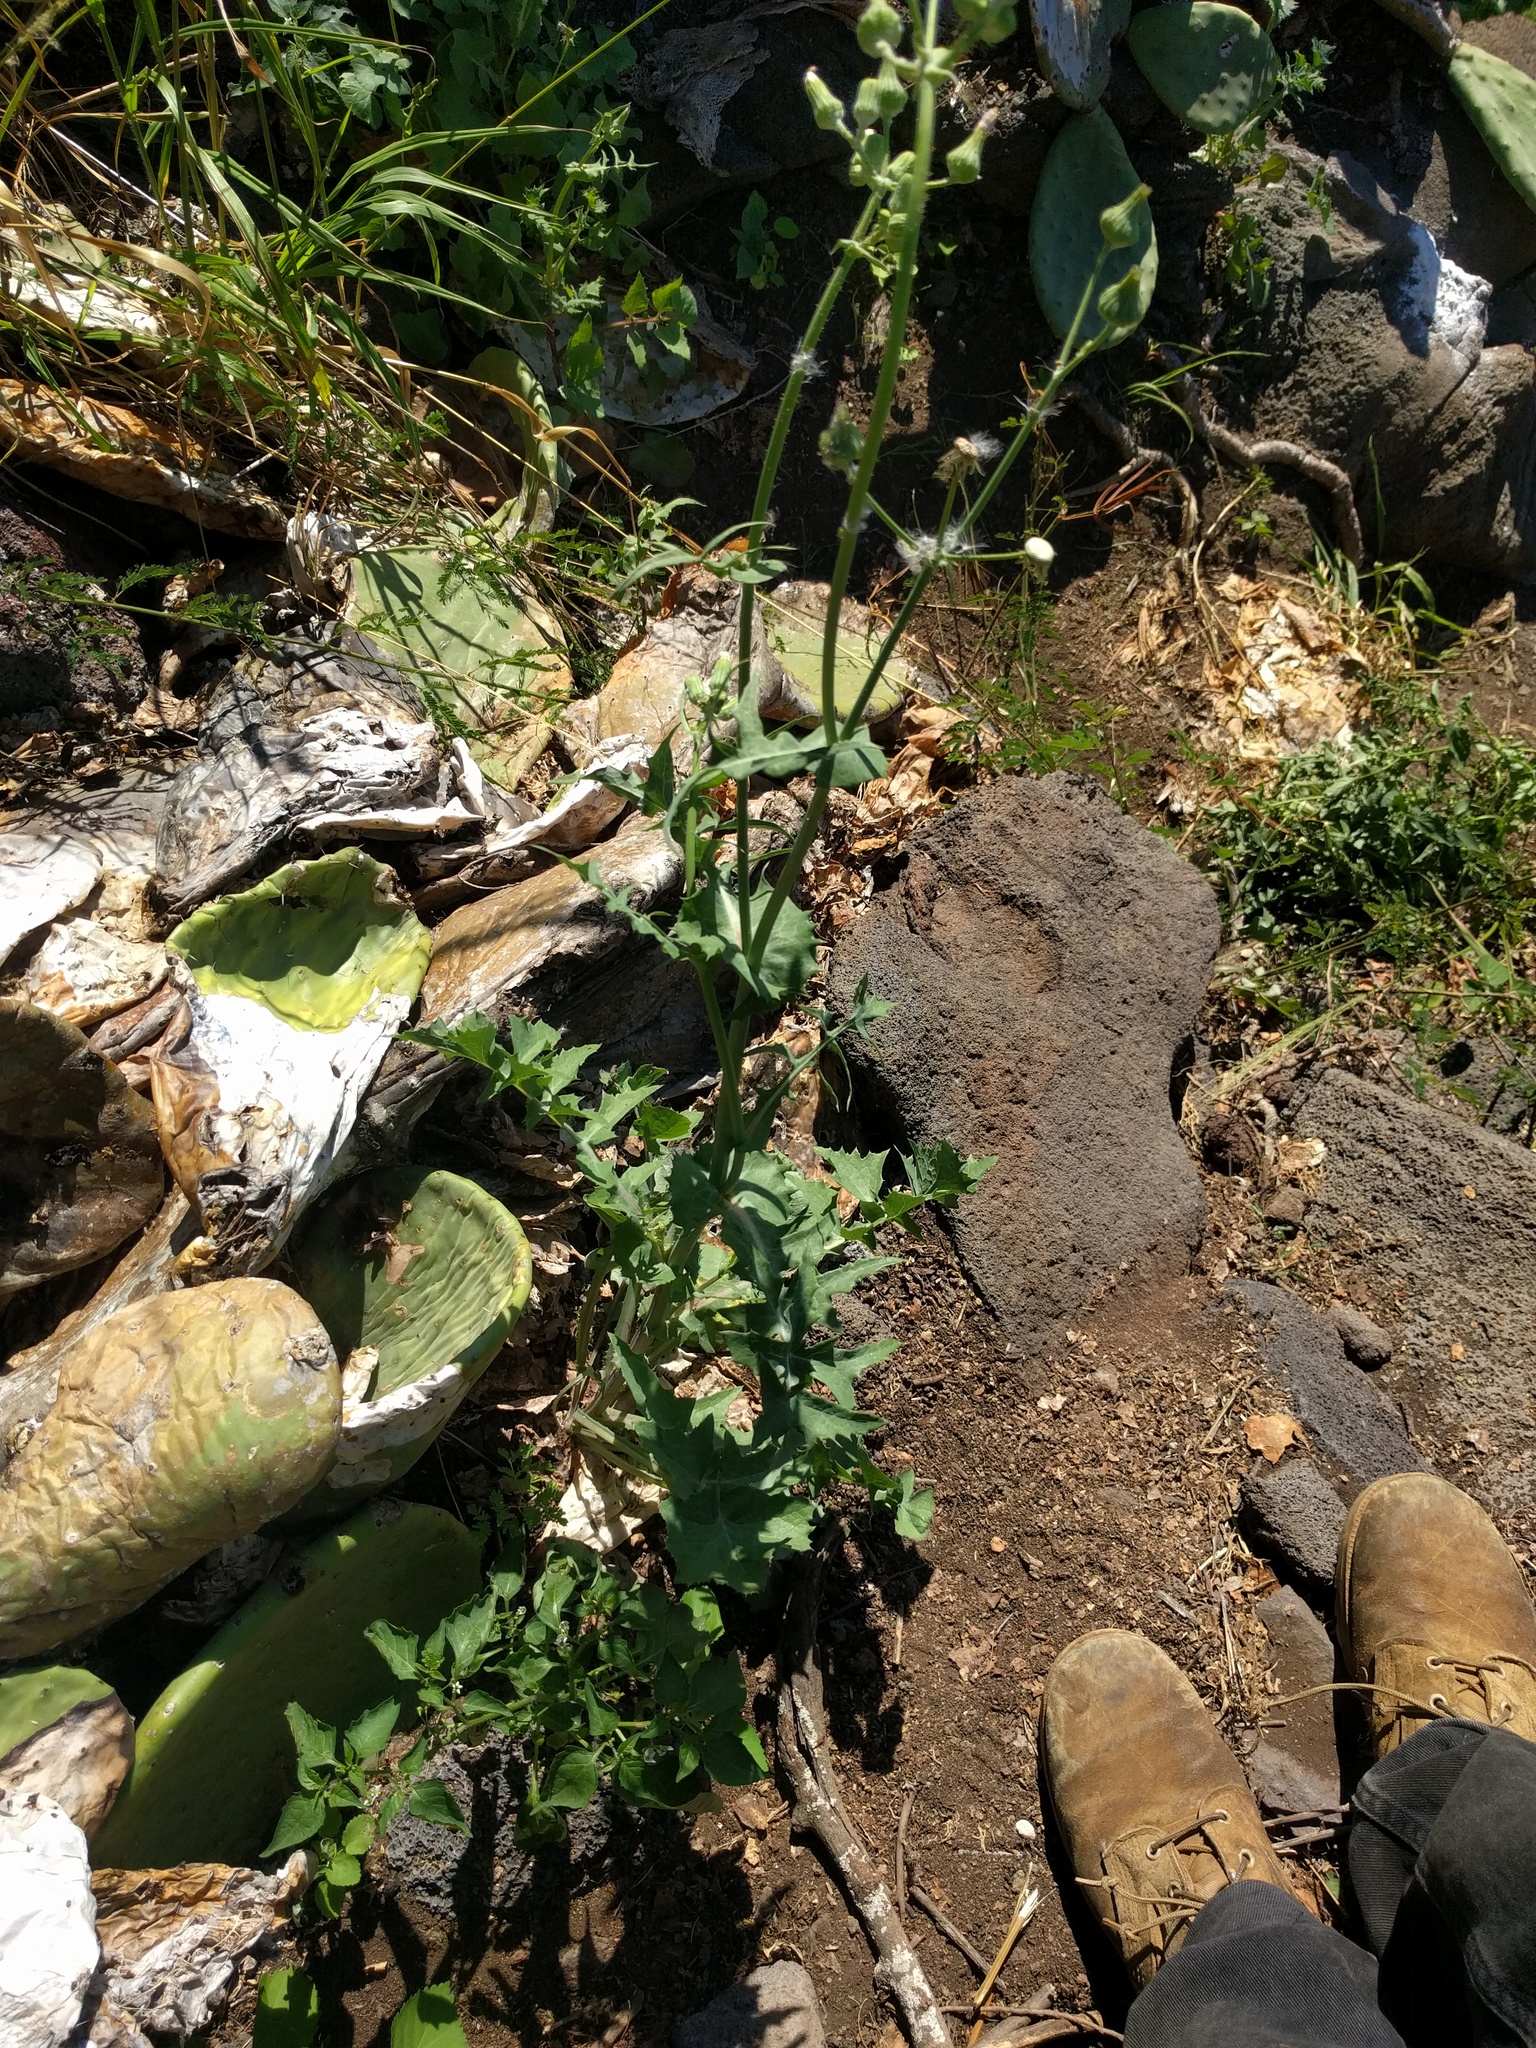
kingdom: Plantae
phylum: Tracheophyta
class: Magnoliopsida
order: Asterales
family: Asteraceae
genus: Sonchus
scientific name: Sonchus oleraceus
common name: Common sowthistle
